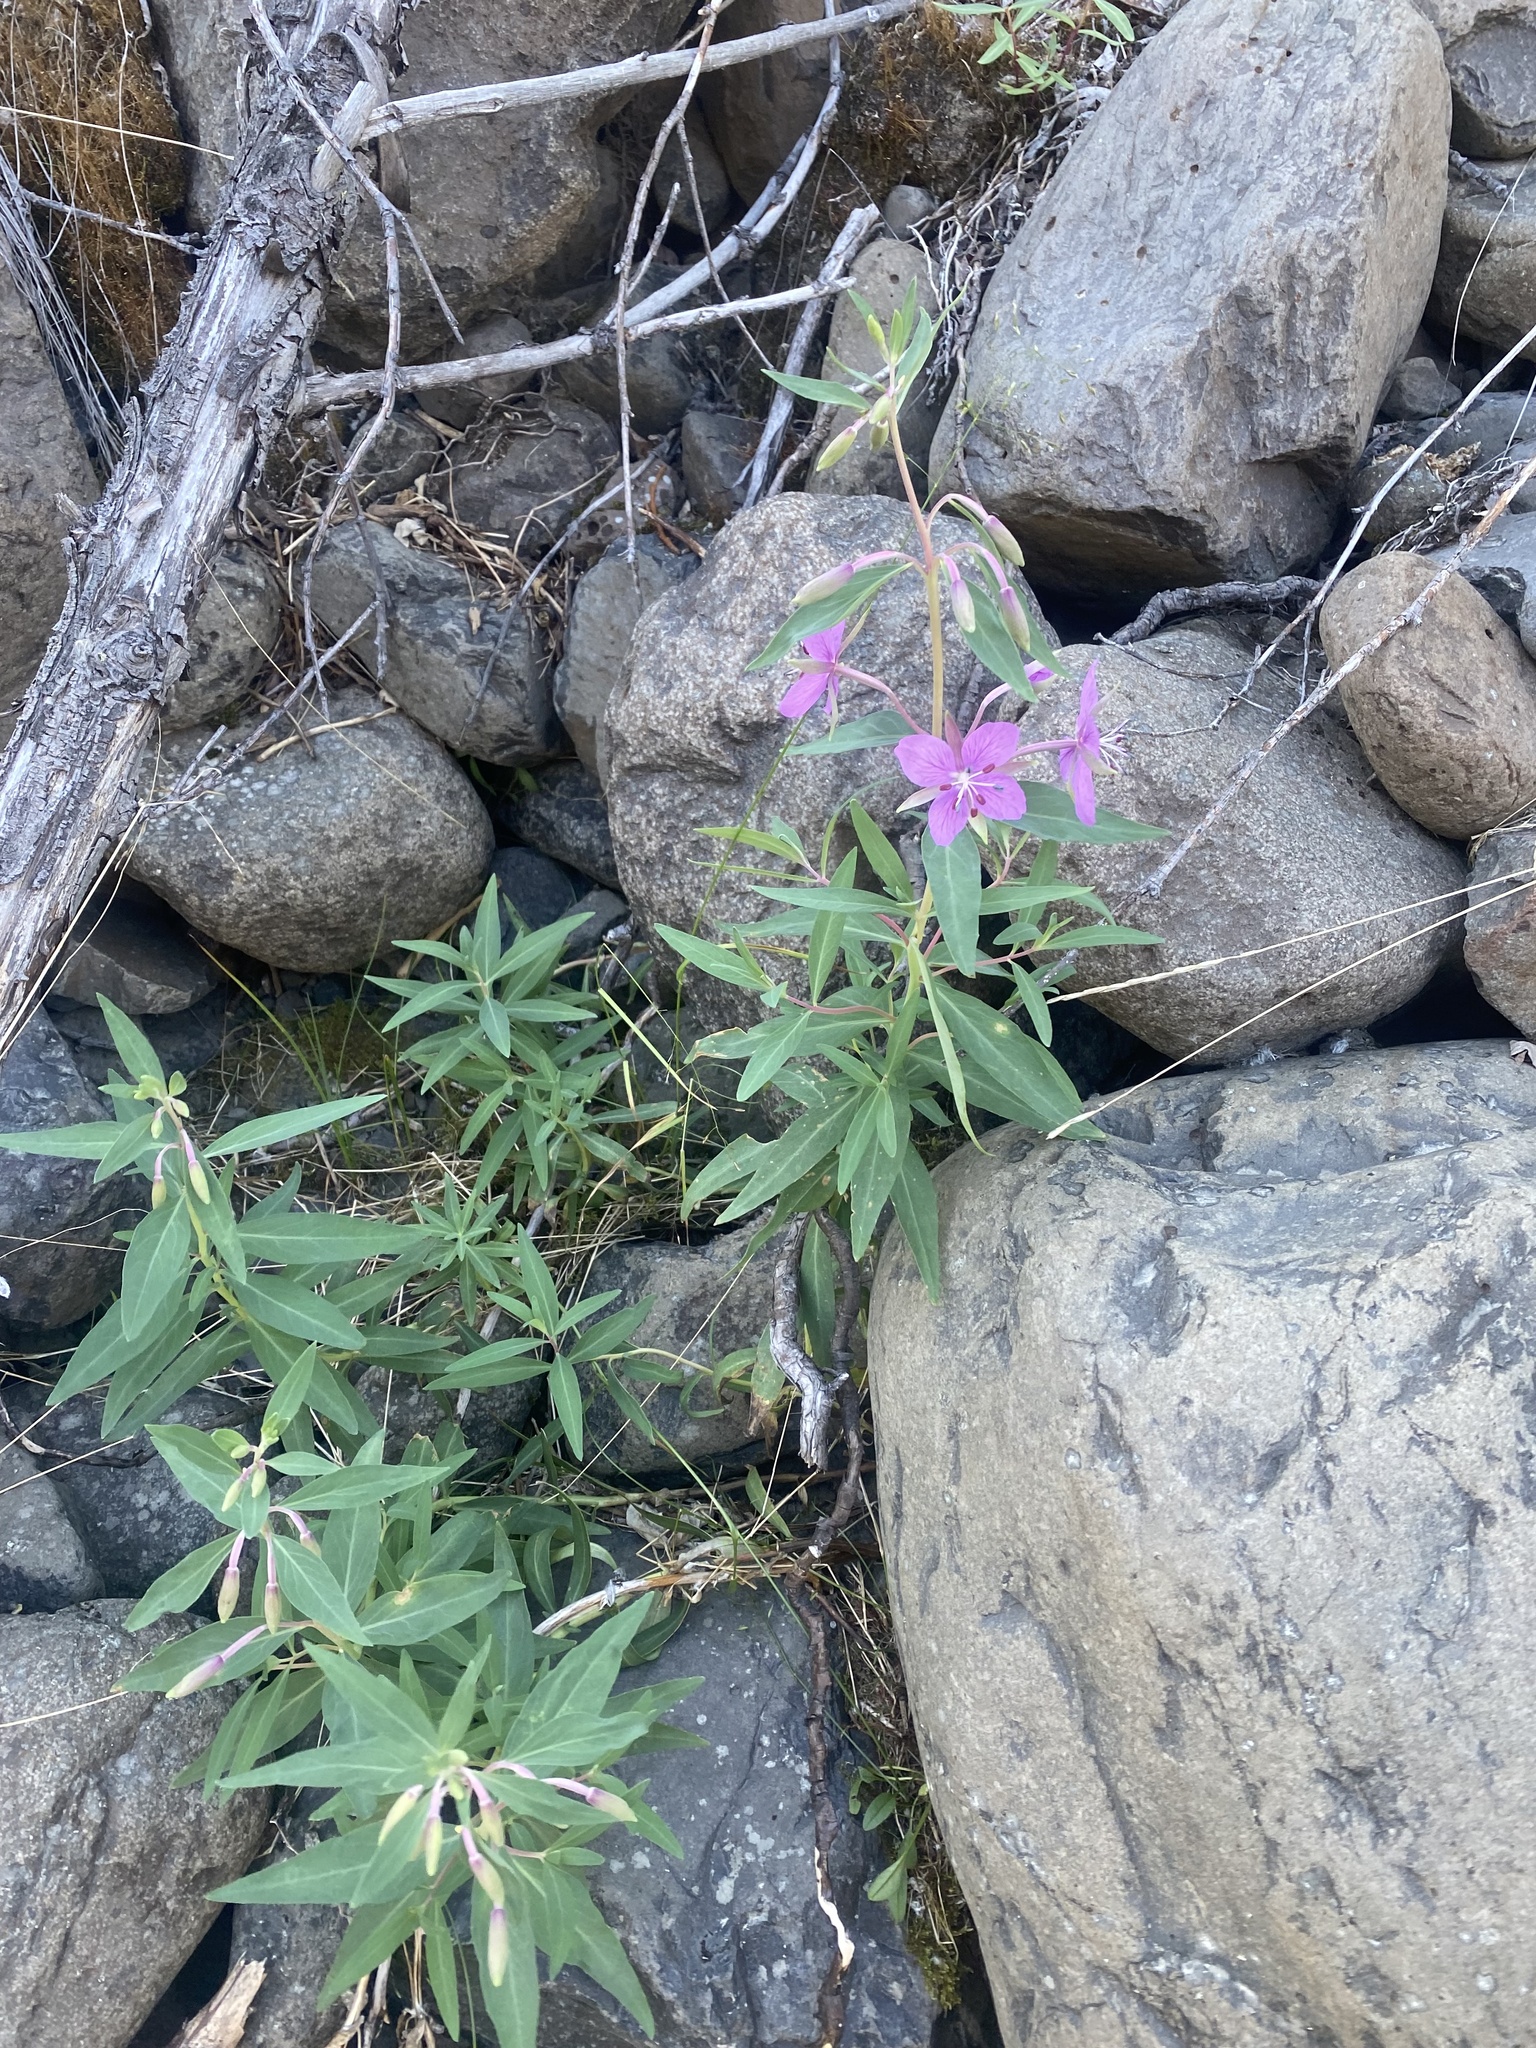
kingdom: Plantae
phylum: Tracheophyta
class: Magnoliopsida
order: Myrtales
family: Onagraceae
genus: Chamaenerion
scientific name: Chamaenerion latifolium
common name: Dwarf fireweed
